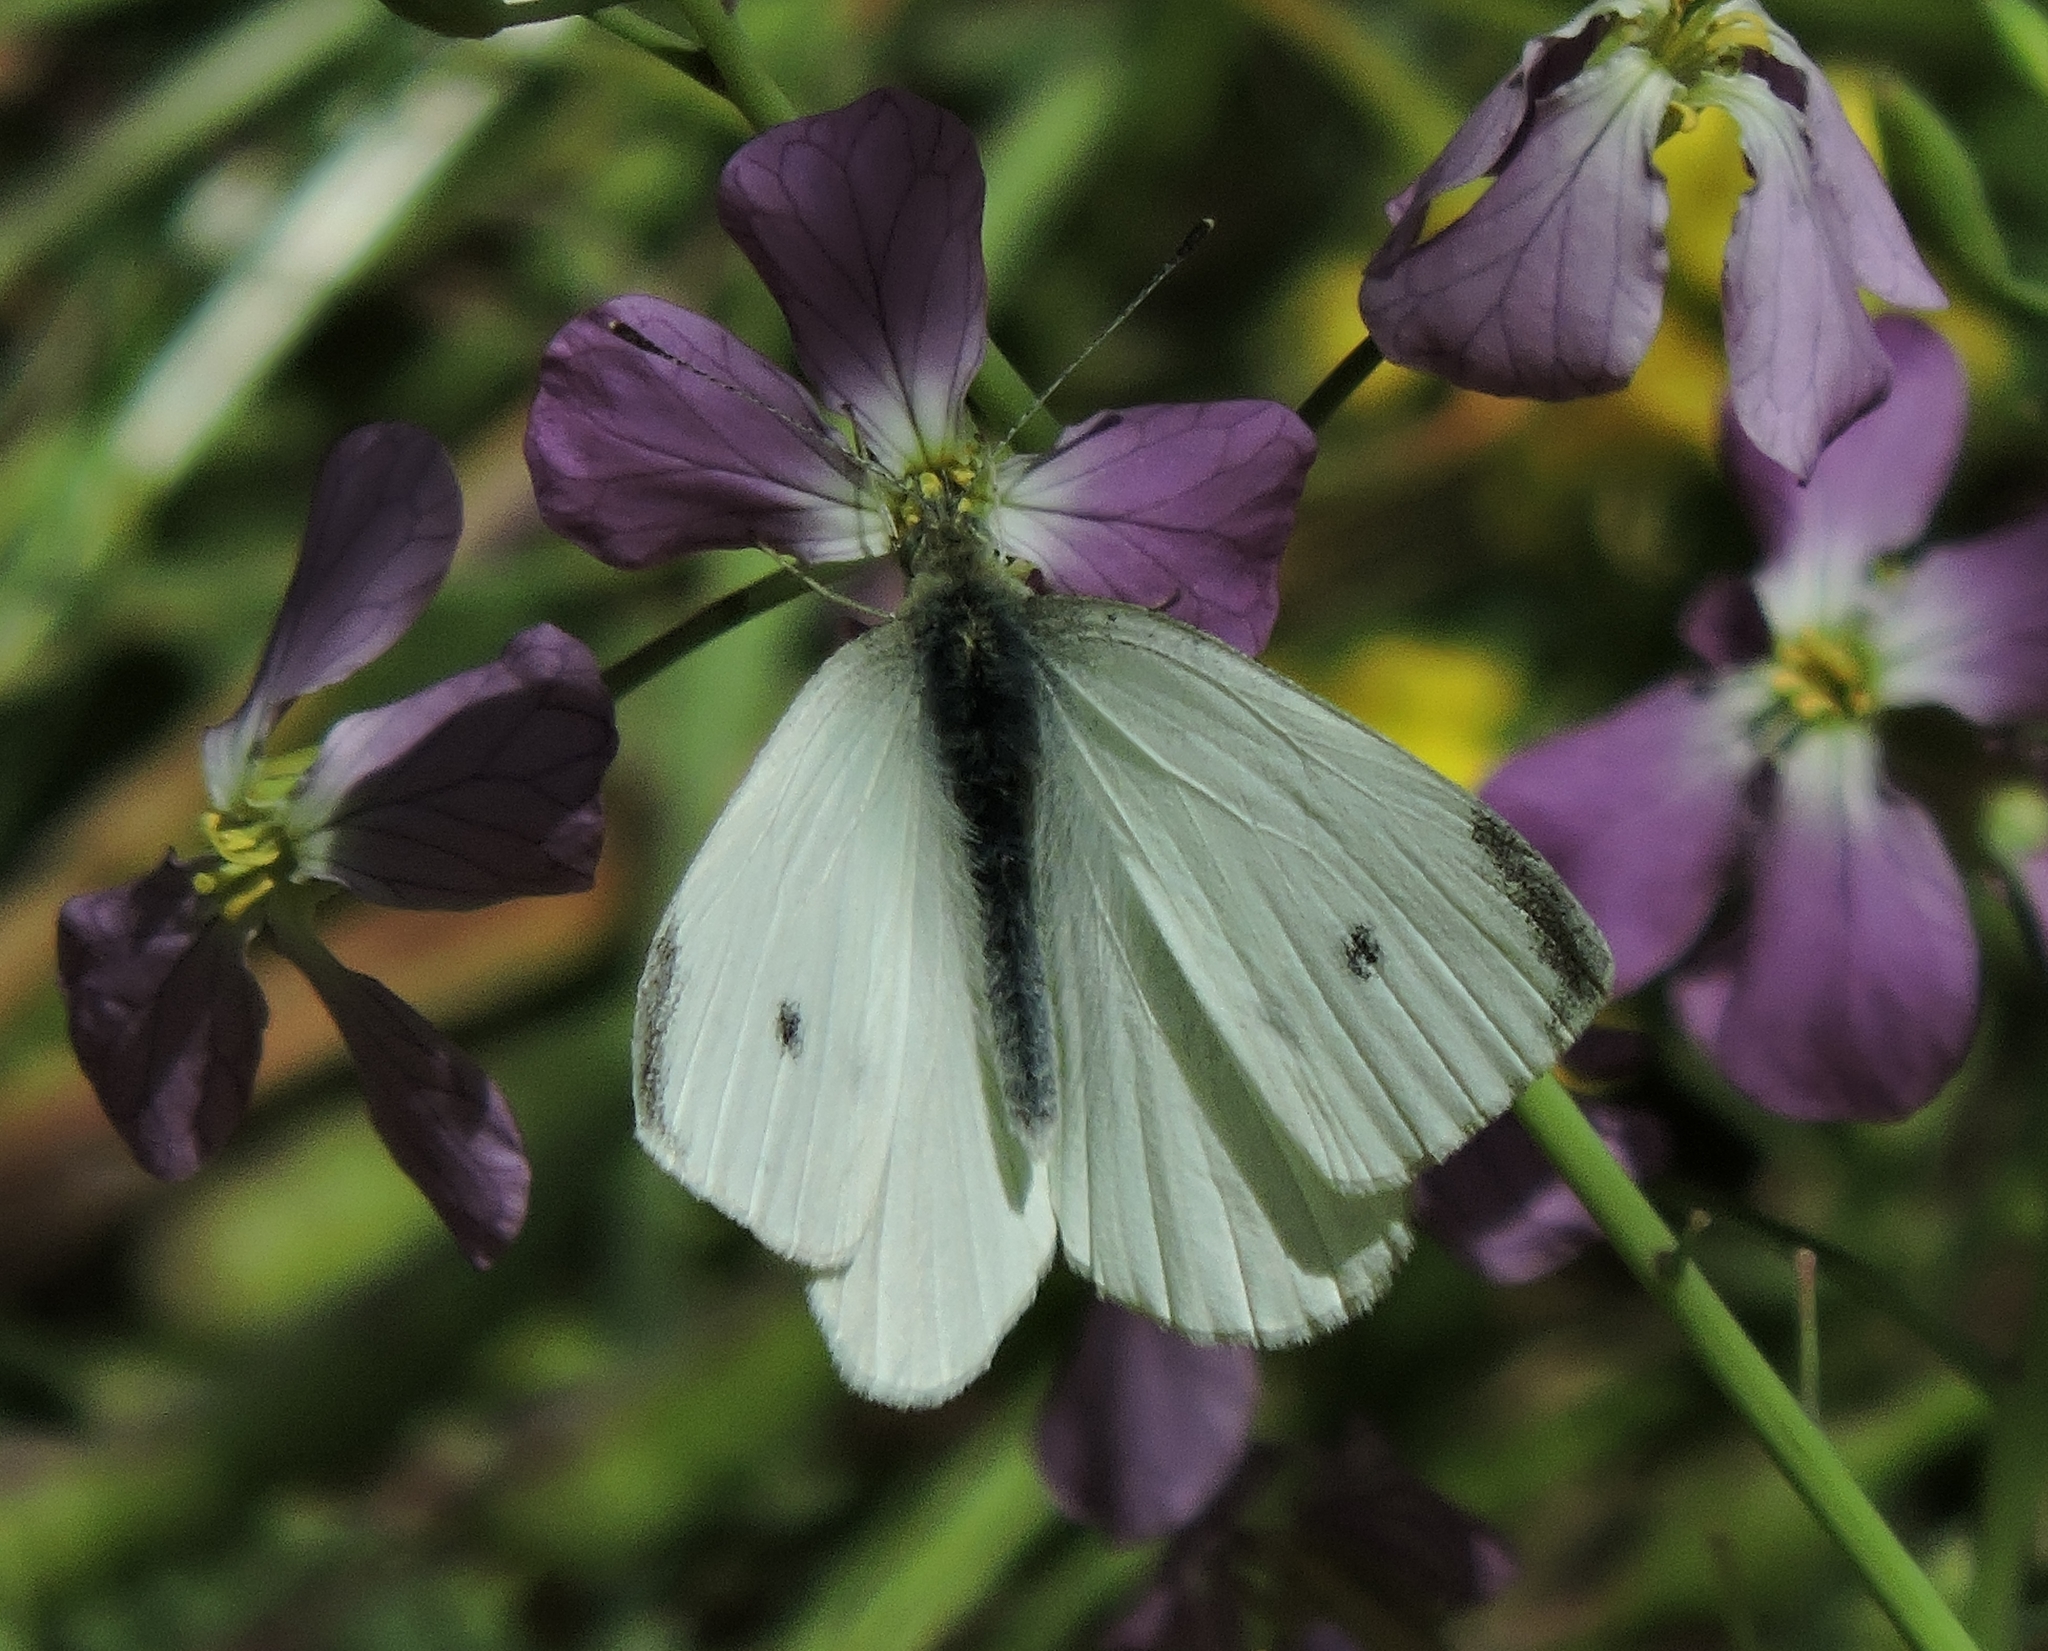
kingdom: Animalia
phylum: Arthropoda
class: Insecta
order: Lepidoptera
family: Pieridae
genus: Pieris
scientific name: Pieris rapae
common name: Small white
